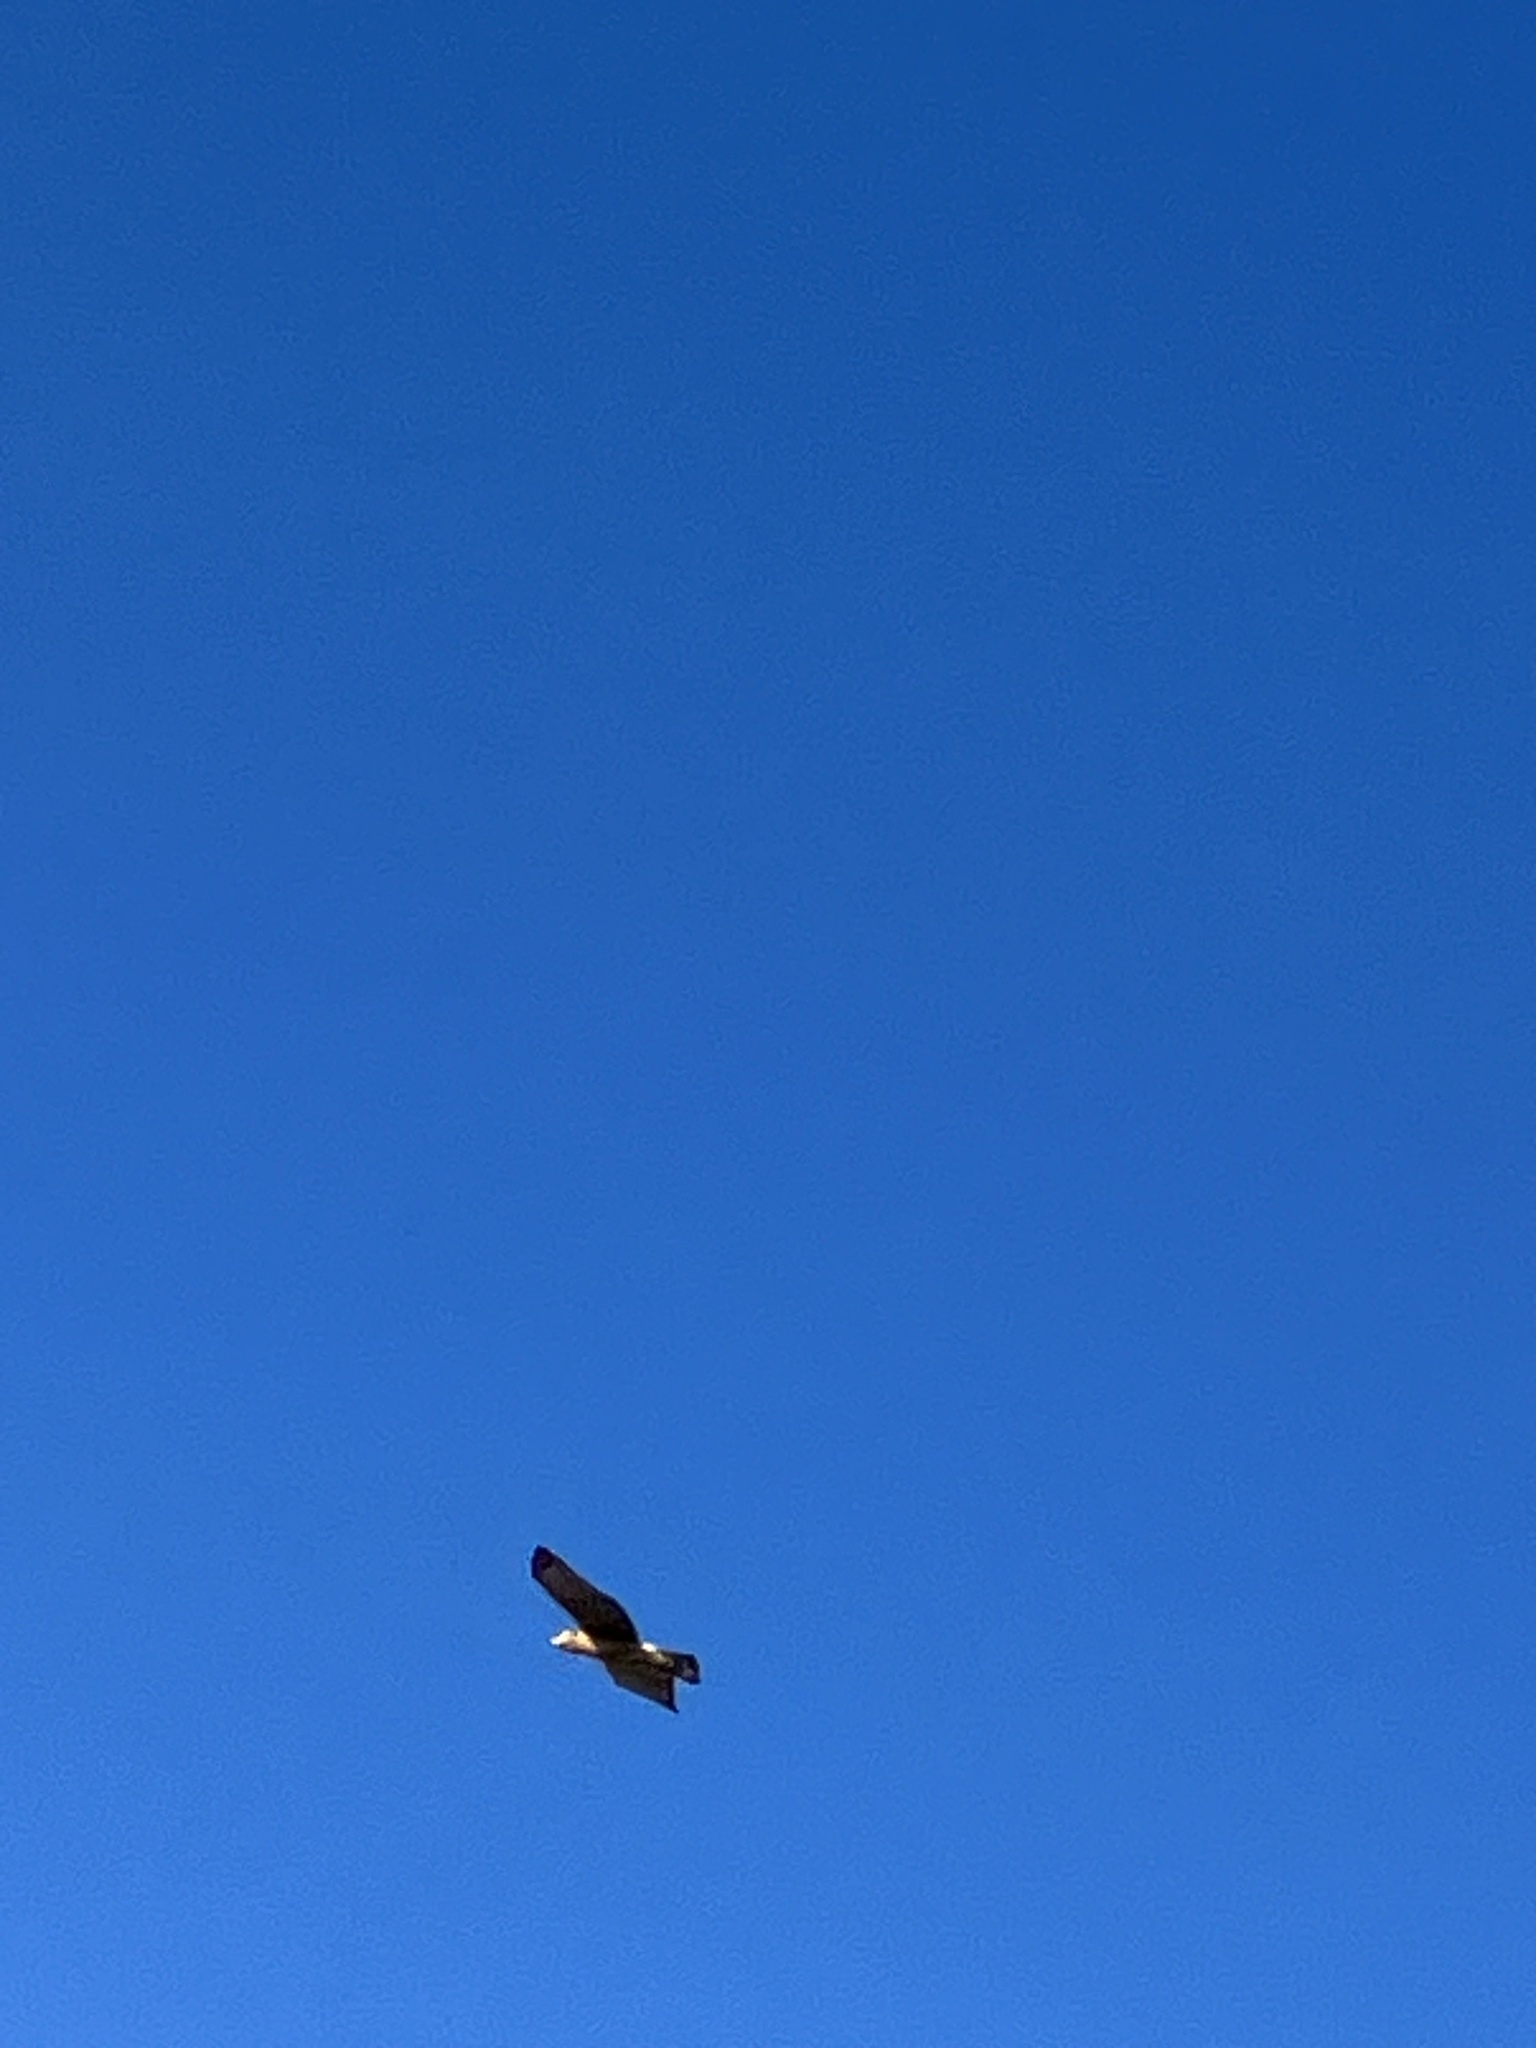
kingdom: Animalia
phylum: Chordata
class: Aves
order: Accipitriformes
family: Accipitridae
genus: Buteo
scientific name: Buteo lineatus
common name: Red-shouldered hawk
